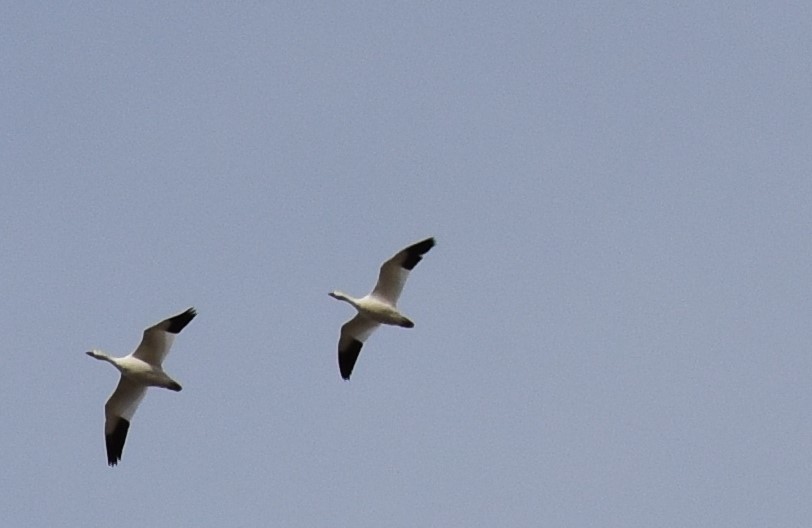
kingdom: Animalia
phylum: Chordata
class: Aves
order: Anseriformes
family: Anatidae
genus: Anser
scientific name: Anser caerulescens
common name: Snow goose
